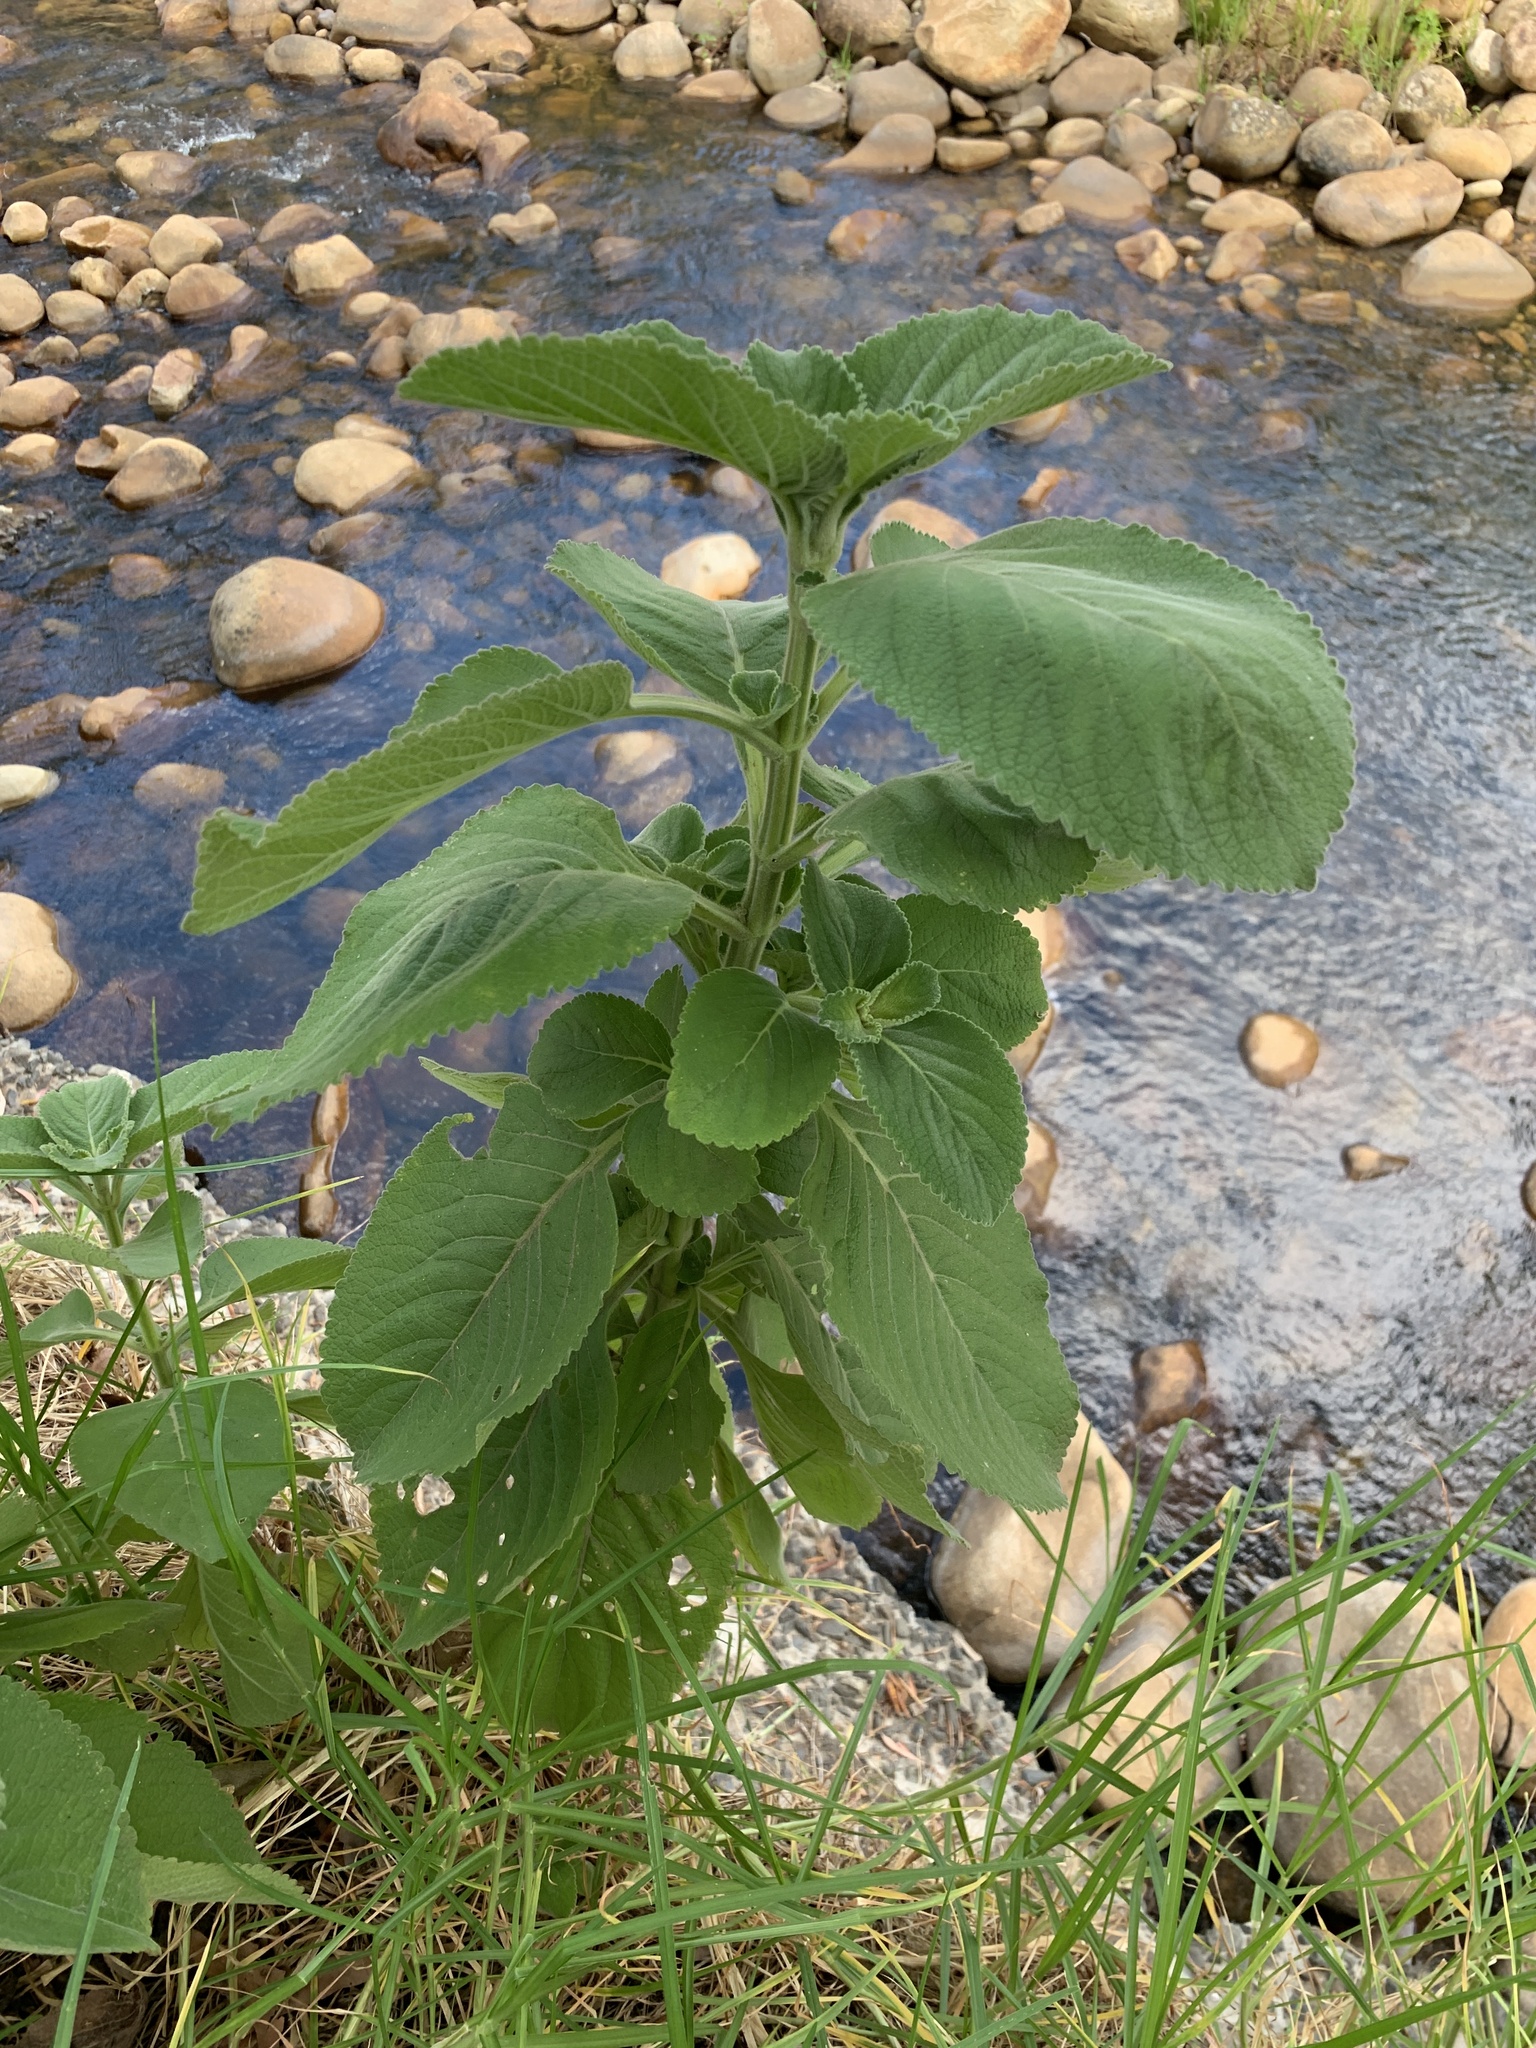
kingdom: Plantae
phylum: Tracheophyta
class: Magnoliopsida
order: Lamiales
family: Lamiaceae
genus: Coleus
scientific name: Coleus barbatus
